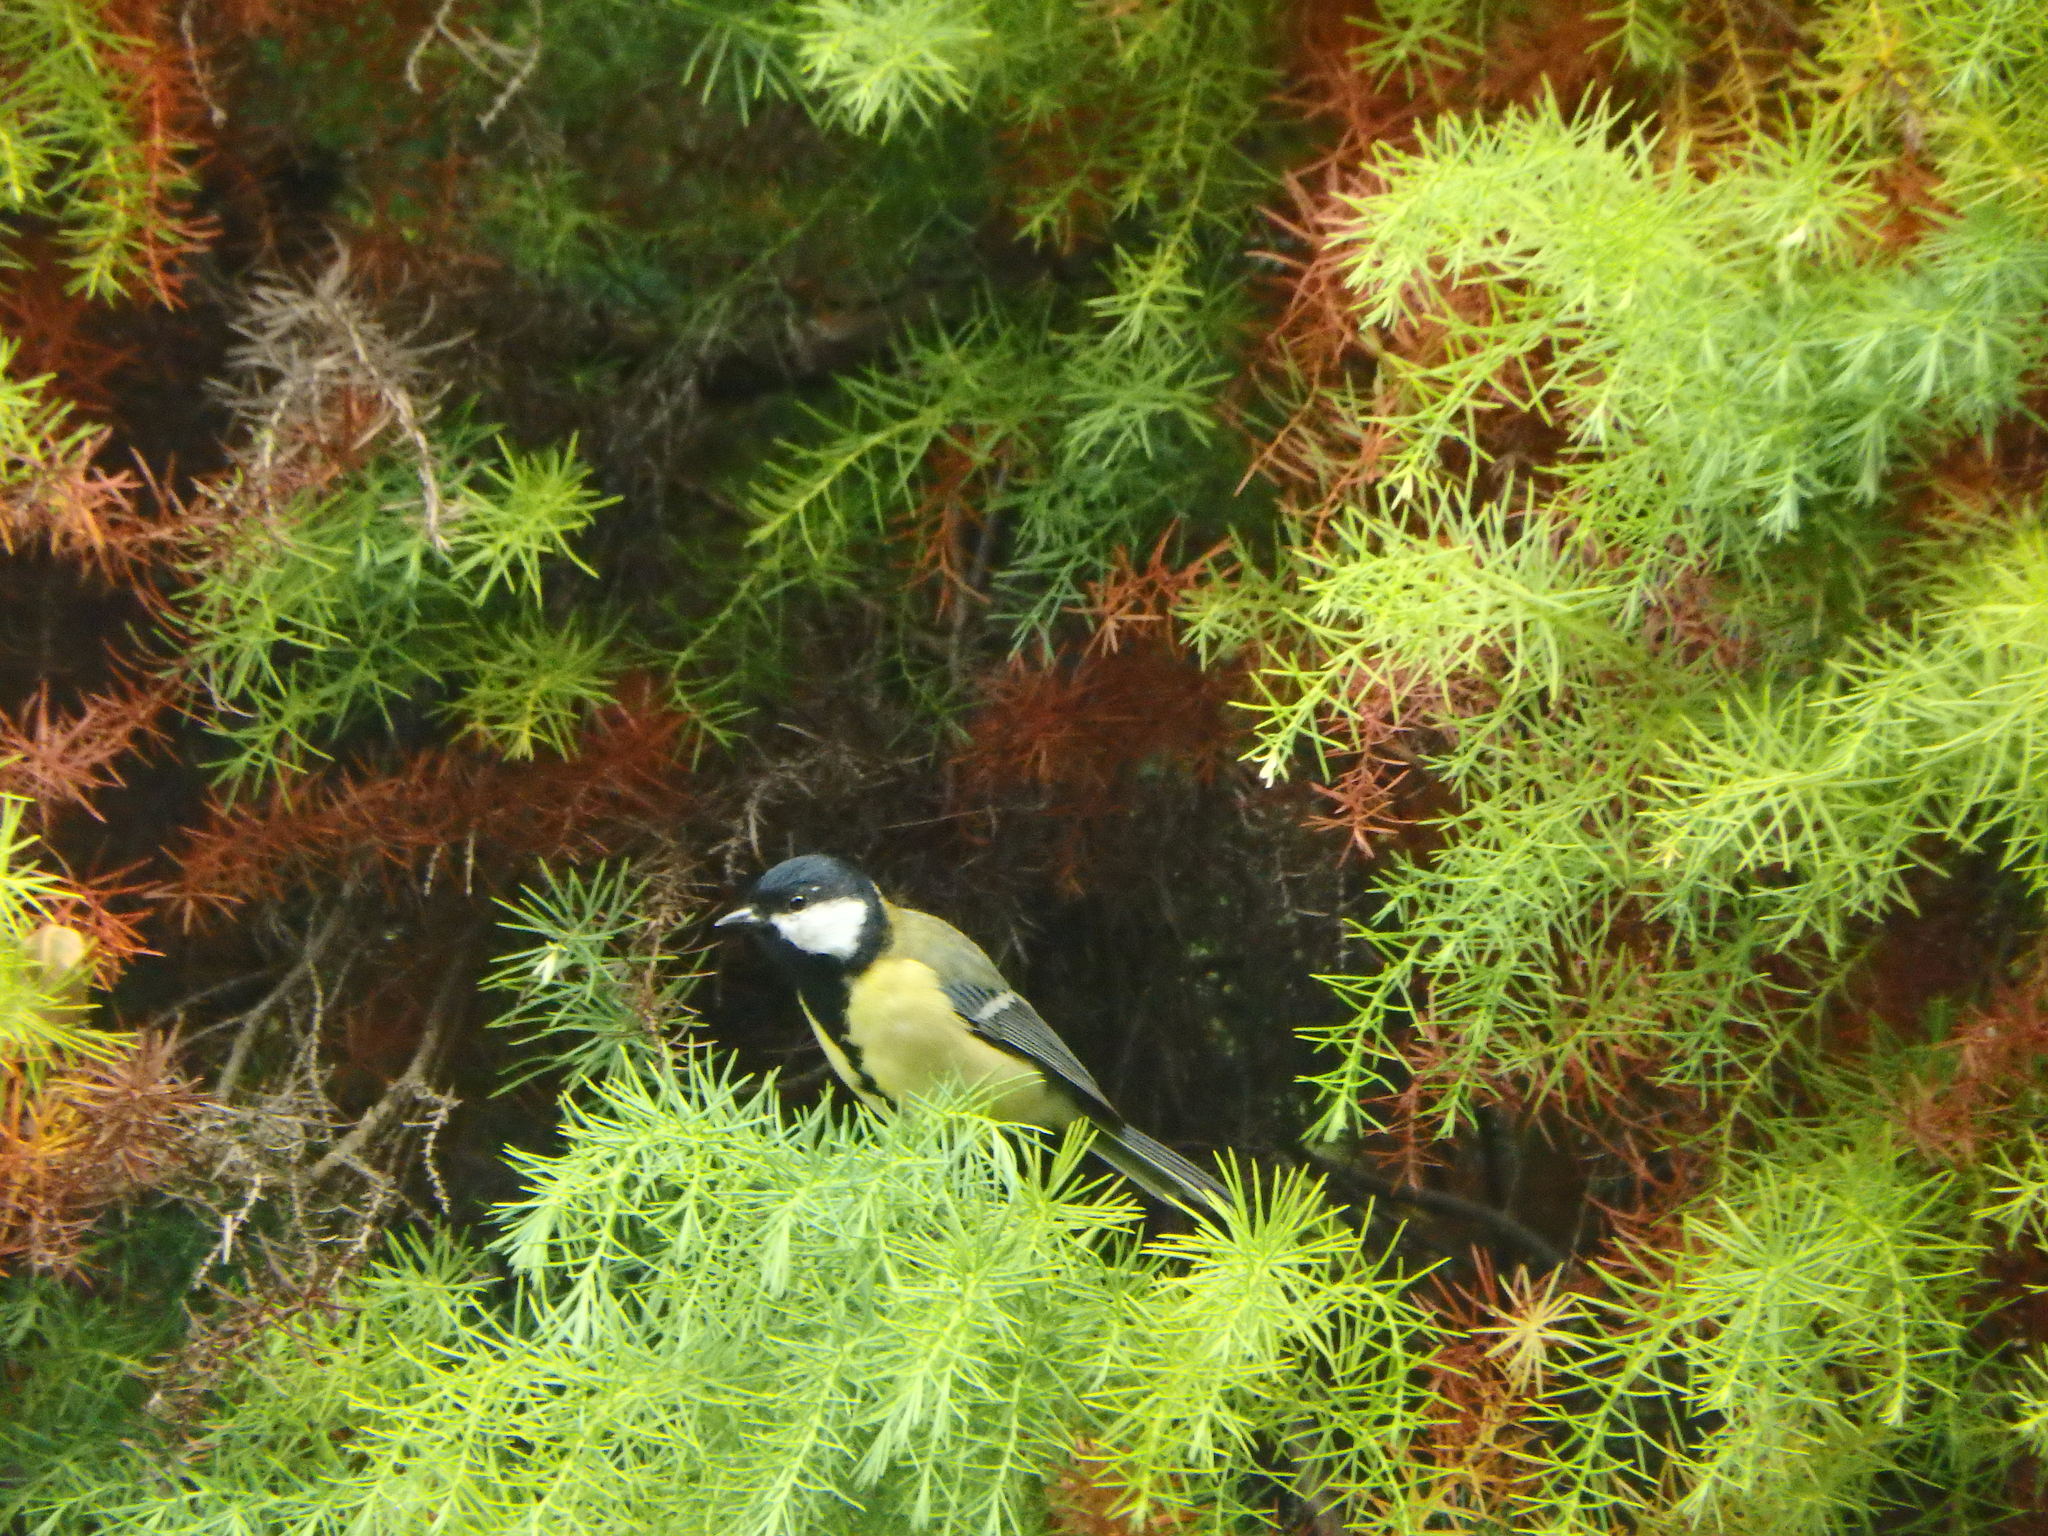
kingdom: Animalia
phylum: Chordata
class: Aves
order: Passeriformes
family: Paridae
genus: Parus
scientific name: Parus major
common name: Great tit
